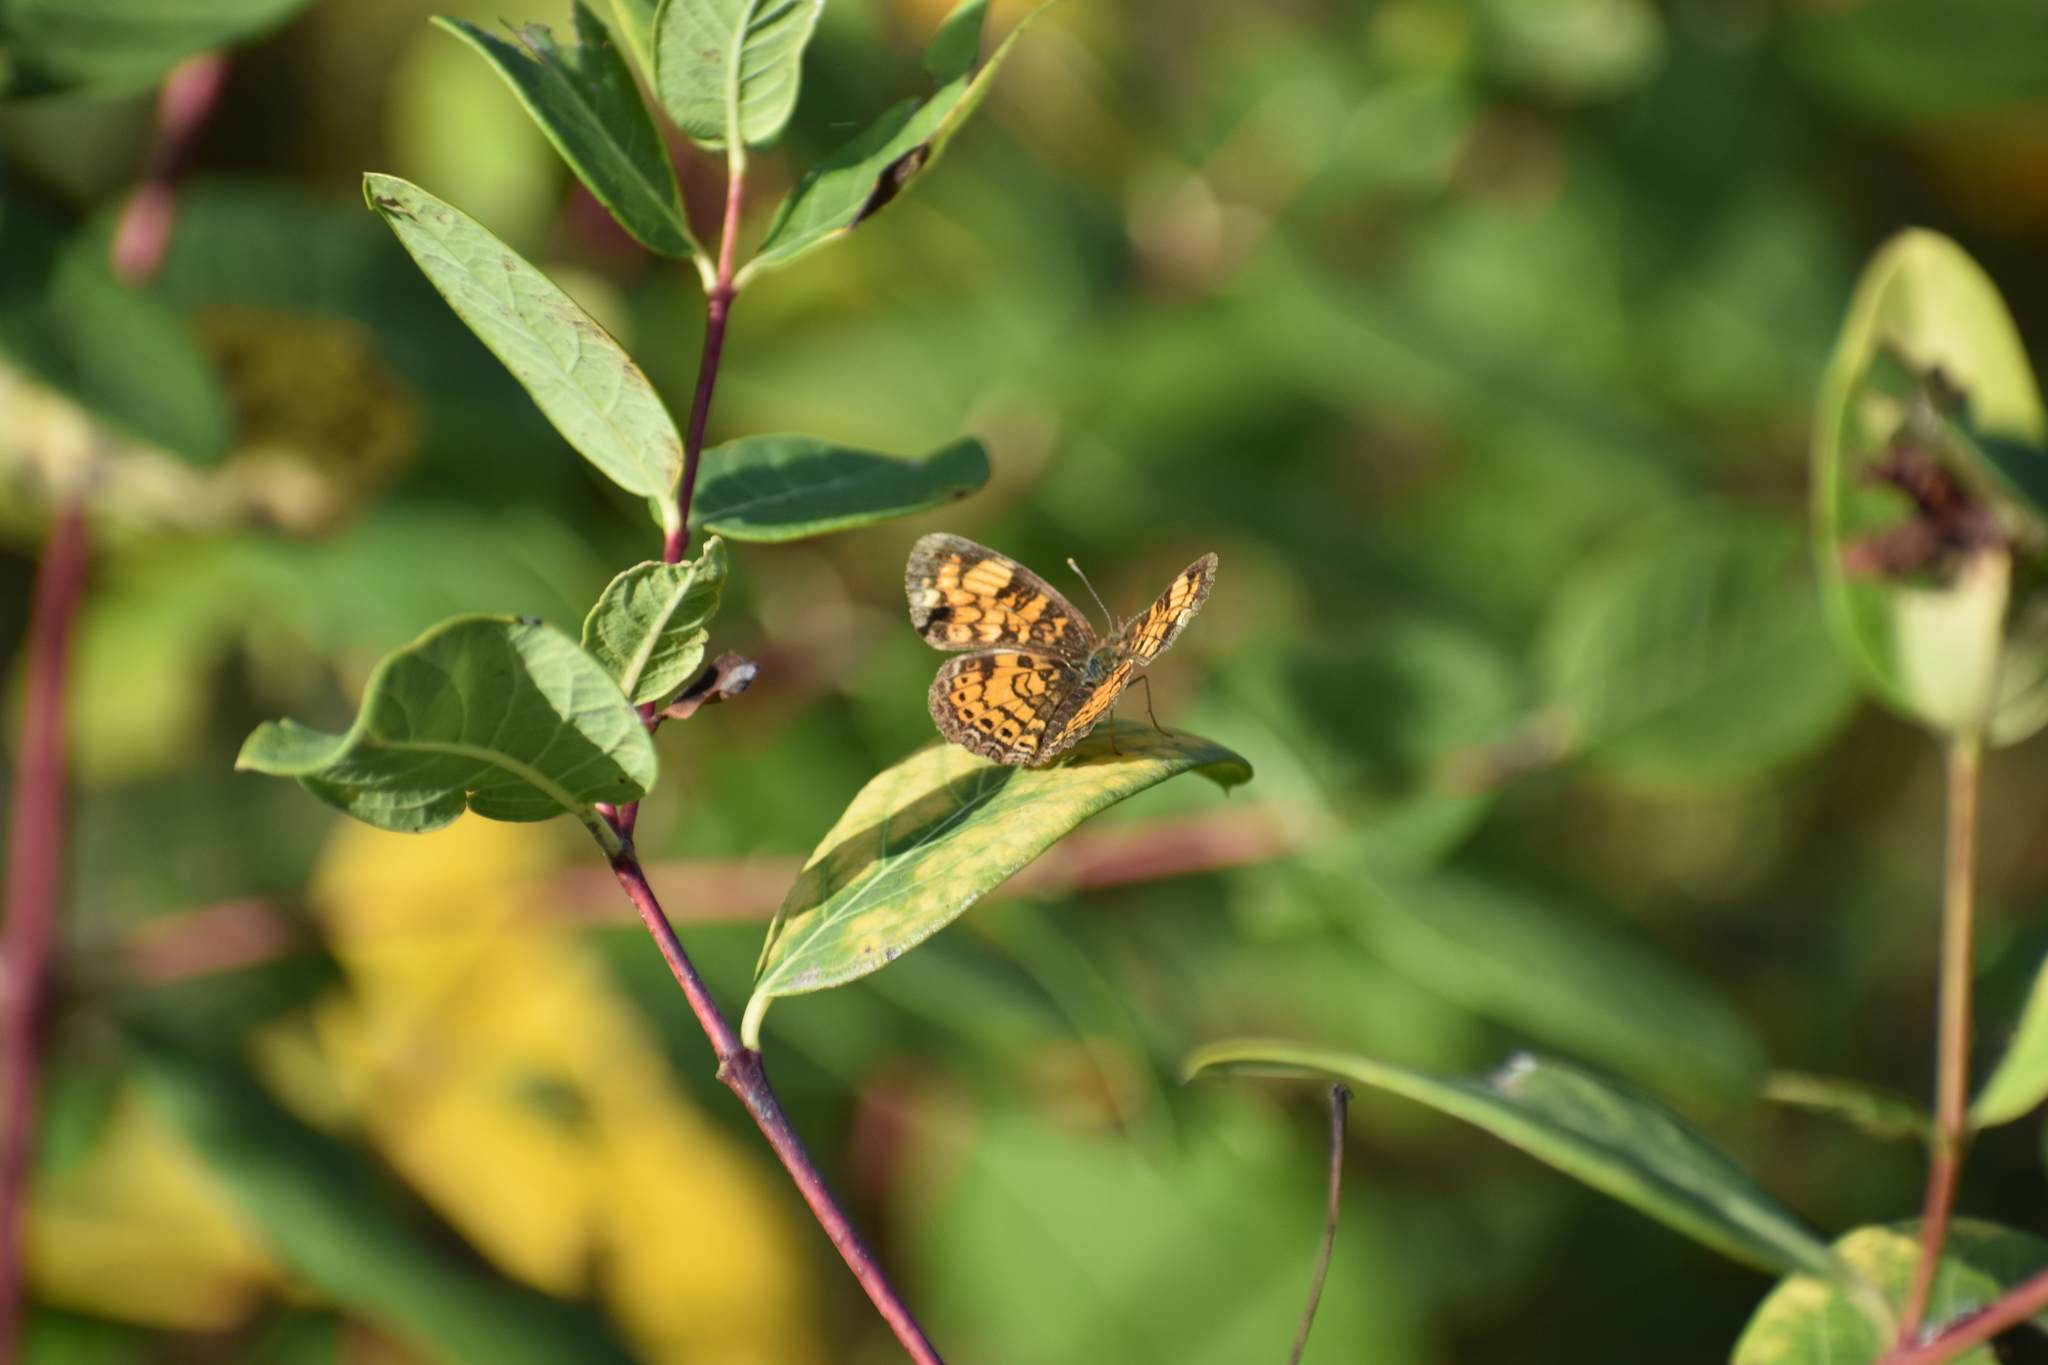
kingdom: Animalia
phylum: Arthropoda
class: Insecta
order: Lepidoptera
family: Nymphalidae
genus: Phyciodes
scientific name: Phyciodes tharos
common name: Pearl crescent
